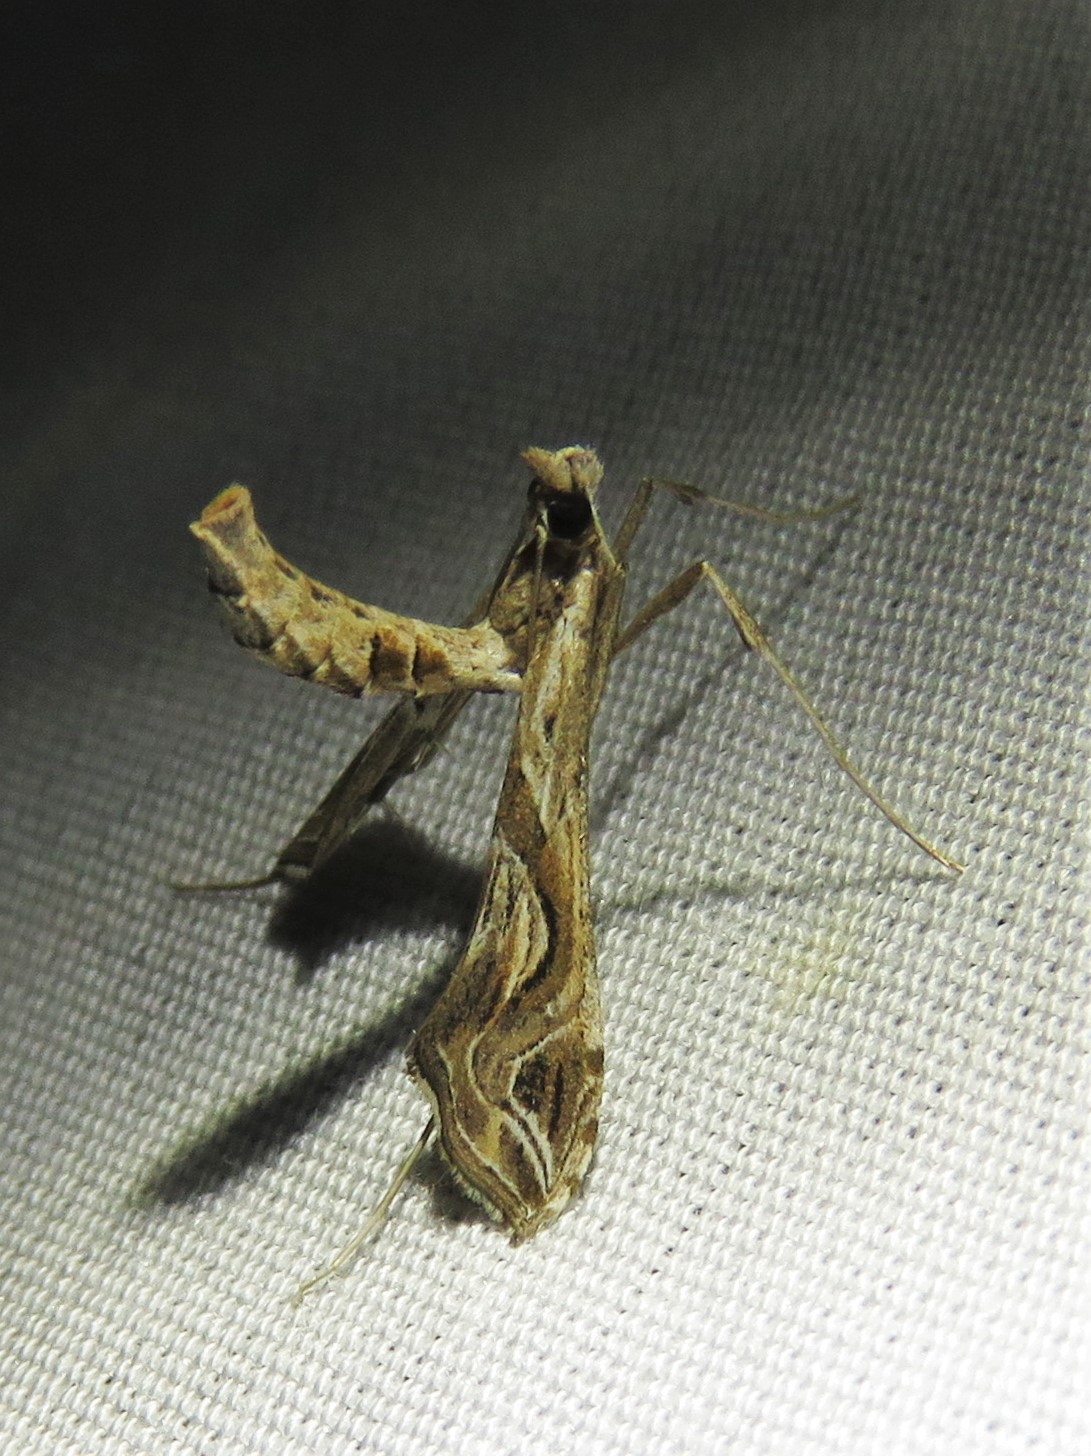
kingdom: Animalia
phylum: Arthropoda
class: Insecta
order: Lepidoptera
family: Crambidae
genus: Lineodes
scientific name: Lineodes integra
